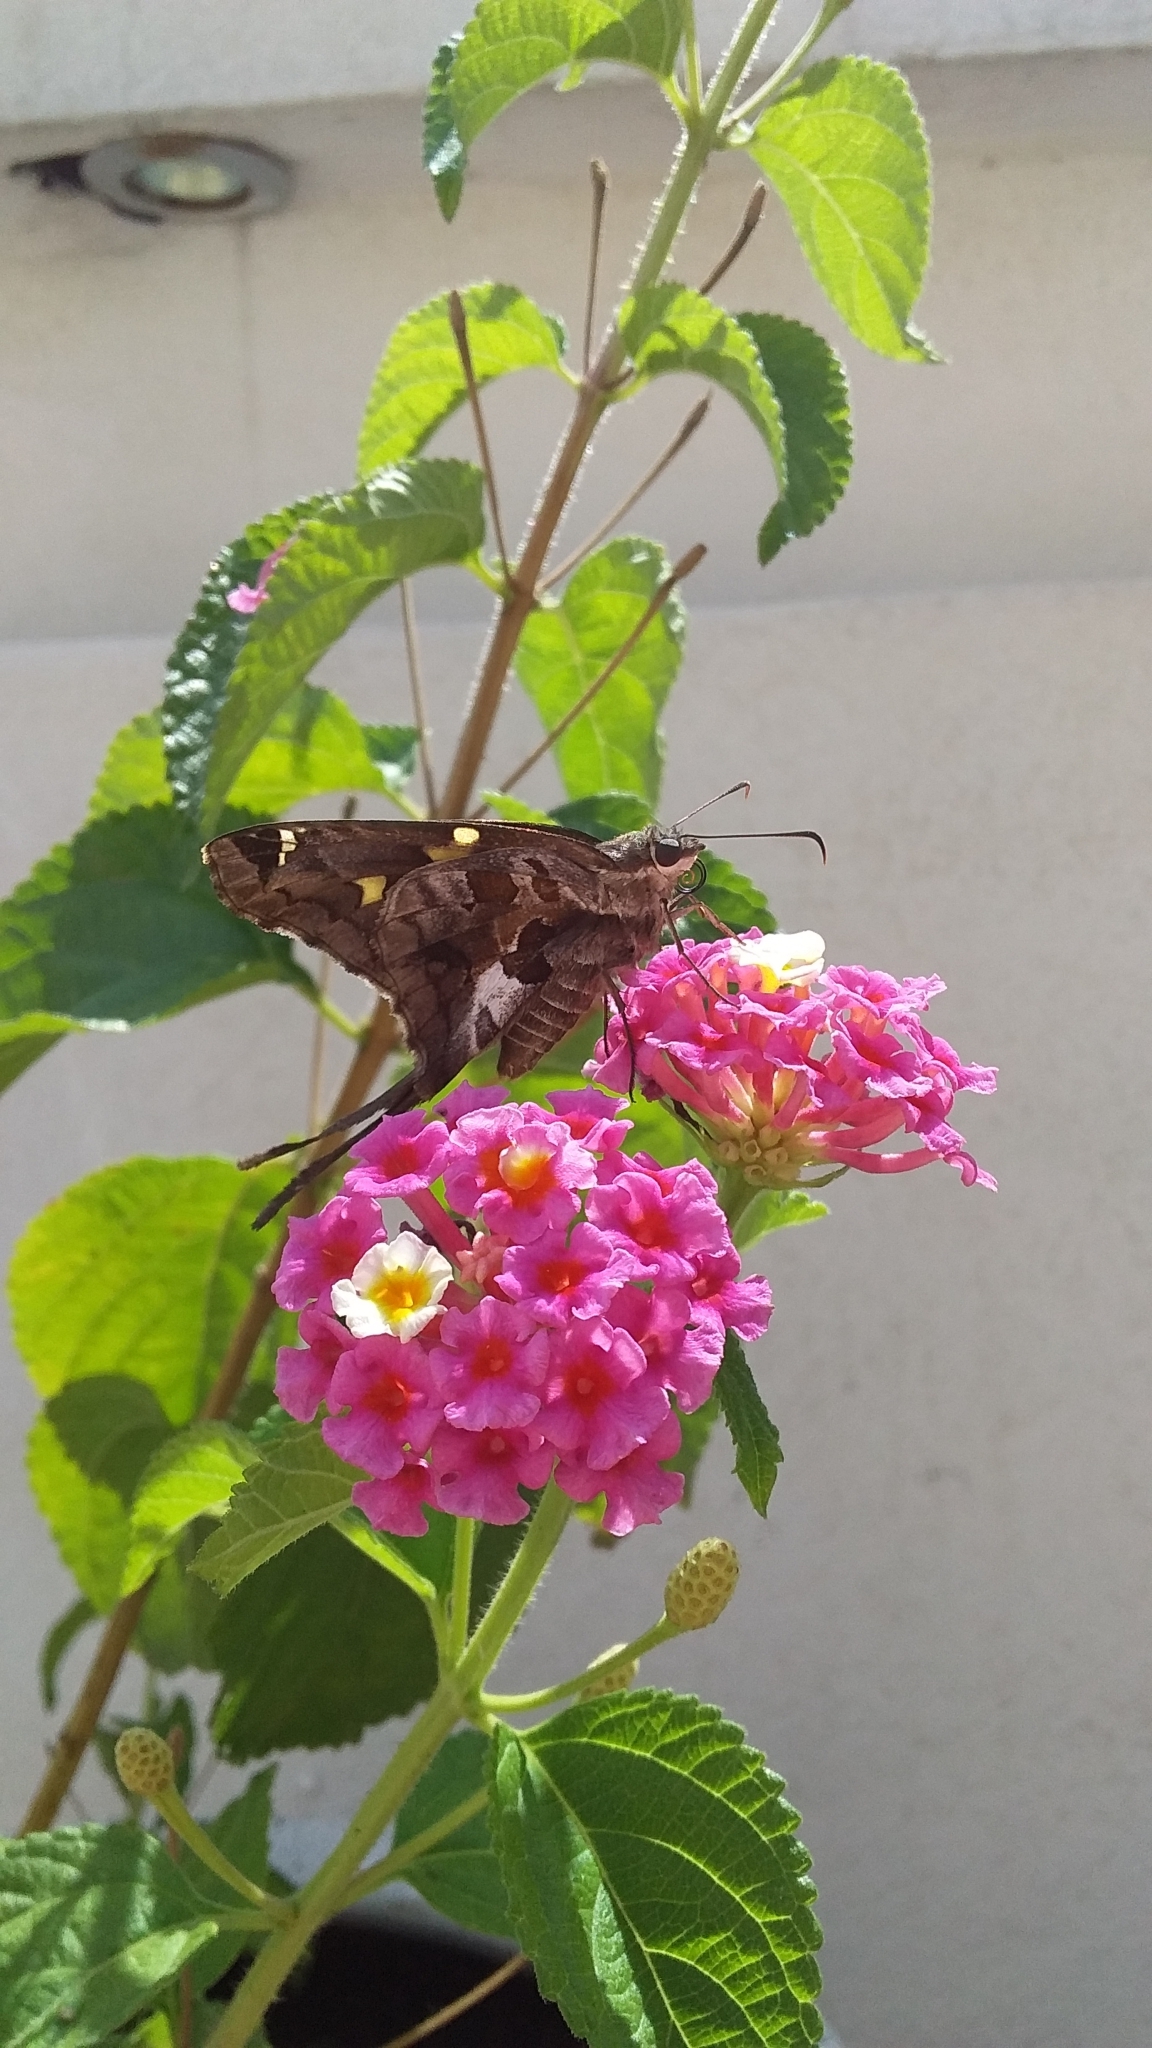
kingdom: Animalia
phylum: Arthropoda
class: Insecta
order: Lepidoptera
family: Hesperiidae
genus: Chioides
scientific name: Chioides zilpa
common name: Zilpa longtail
